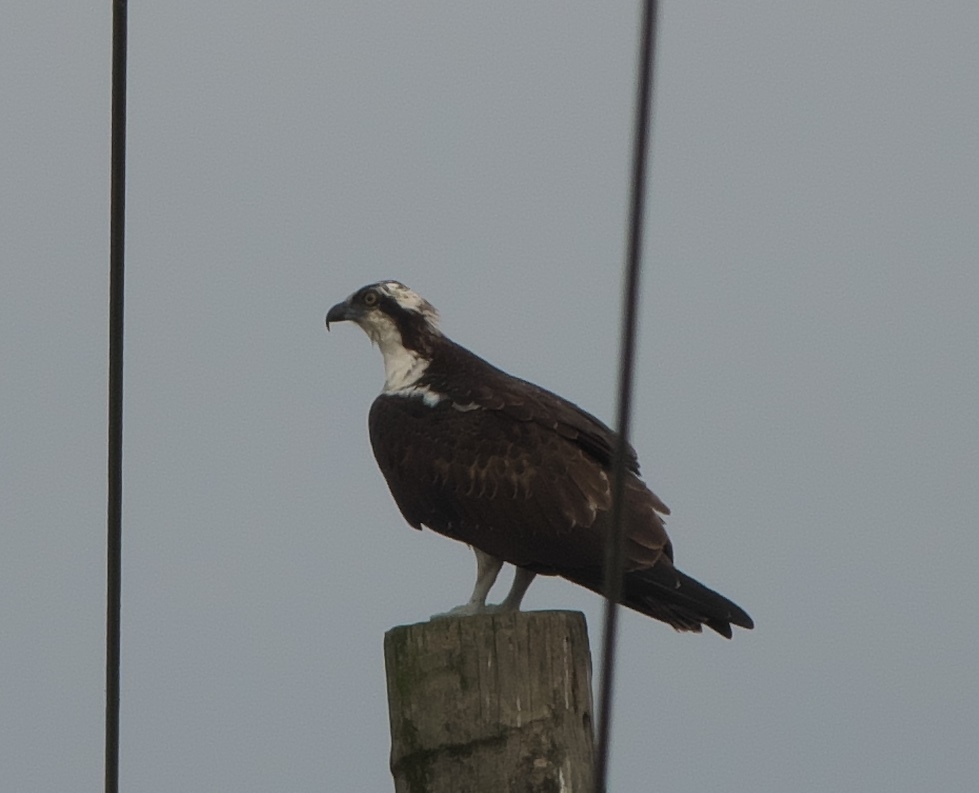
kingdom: Animalia
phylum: Chordata
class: Aves
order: Accipitriformes
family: Pandionidae
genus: Pandion
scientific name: Pandion haliaetus
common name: Osprey
